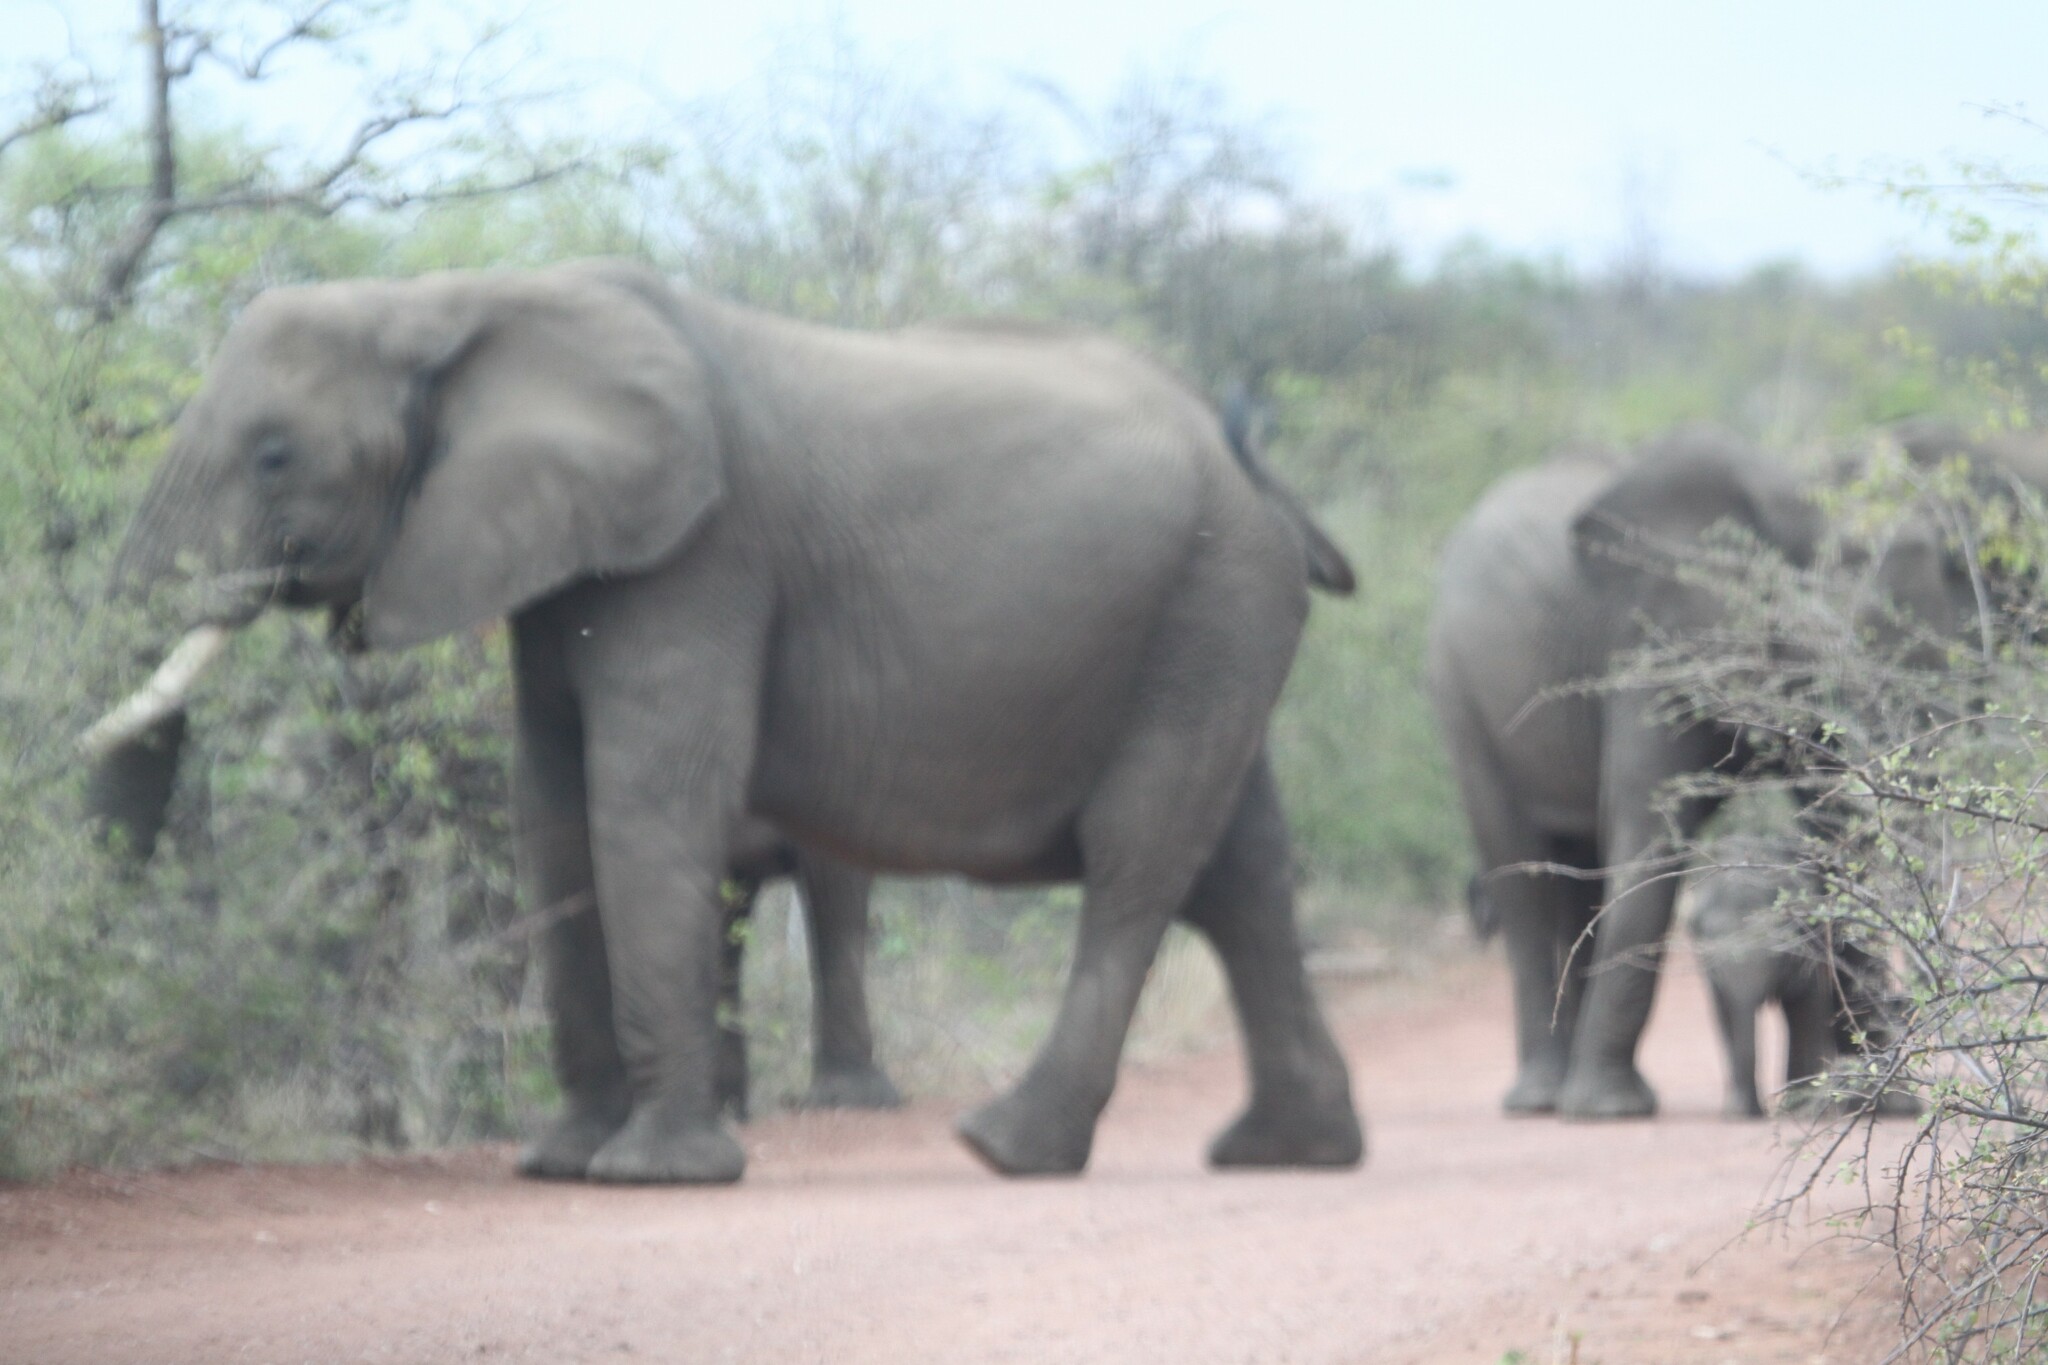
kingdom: Animalia
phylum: Chordata
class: Mammalia
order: Proboscidea
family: Elephantidae
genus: Loxodonta
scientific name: Loxodonta africana
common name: African elephant
